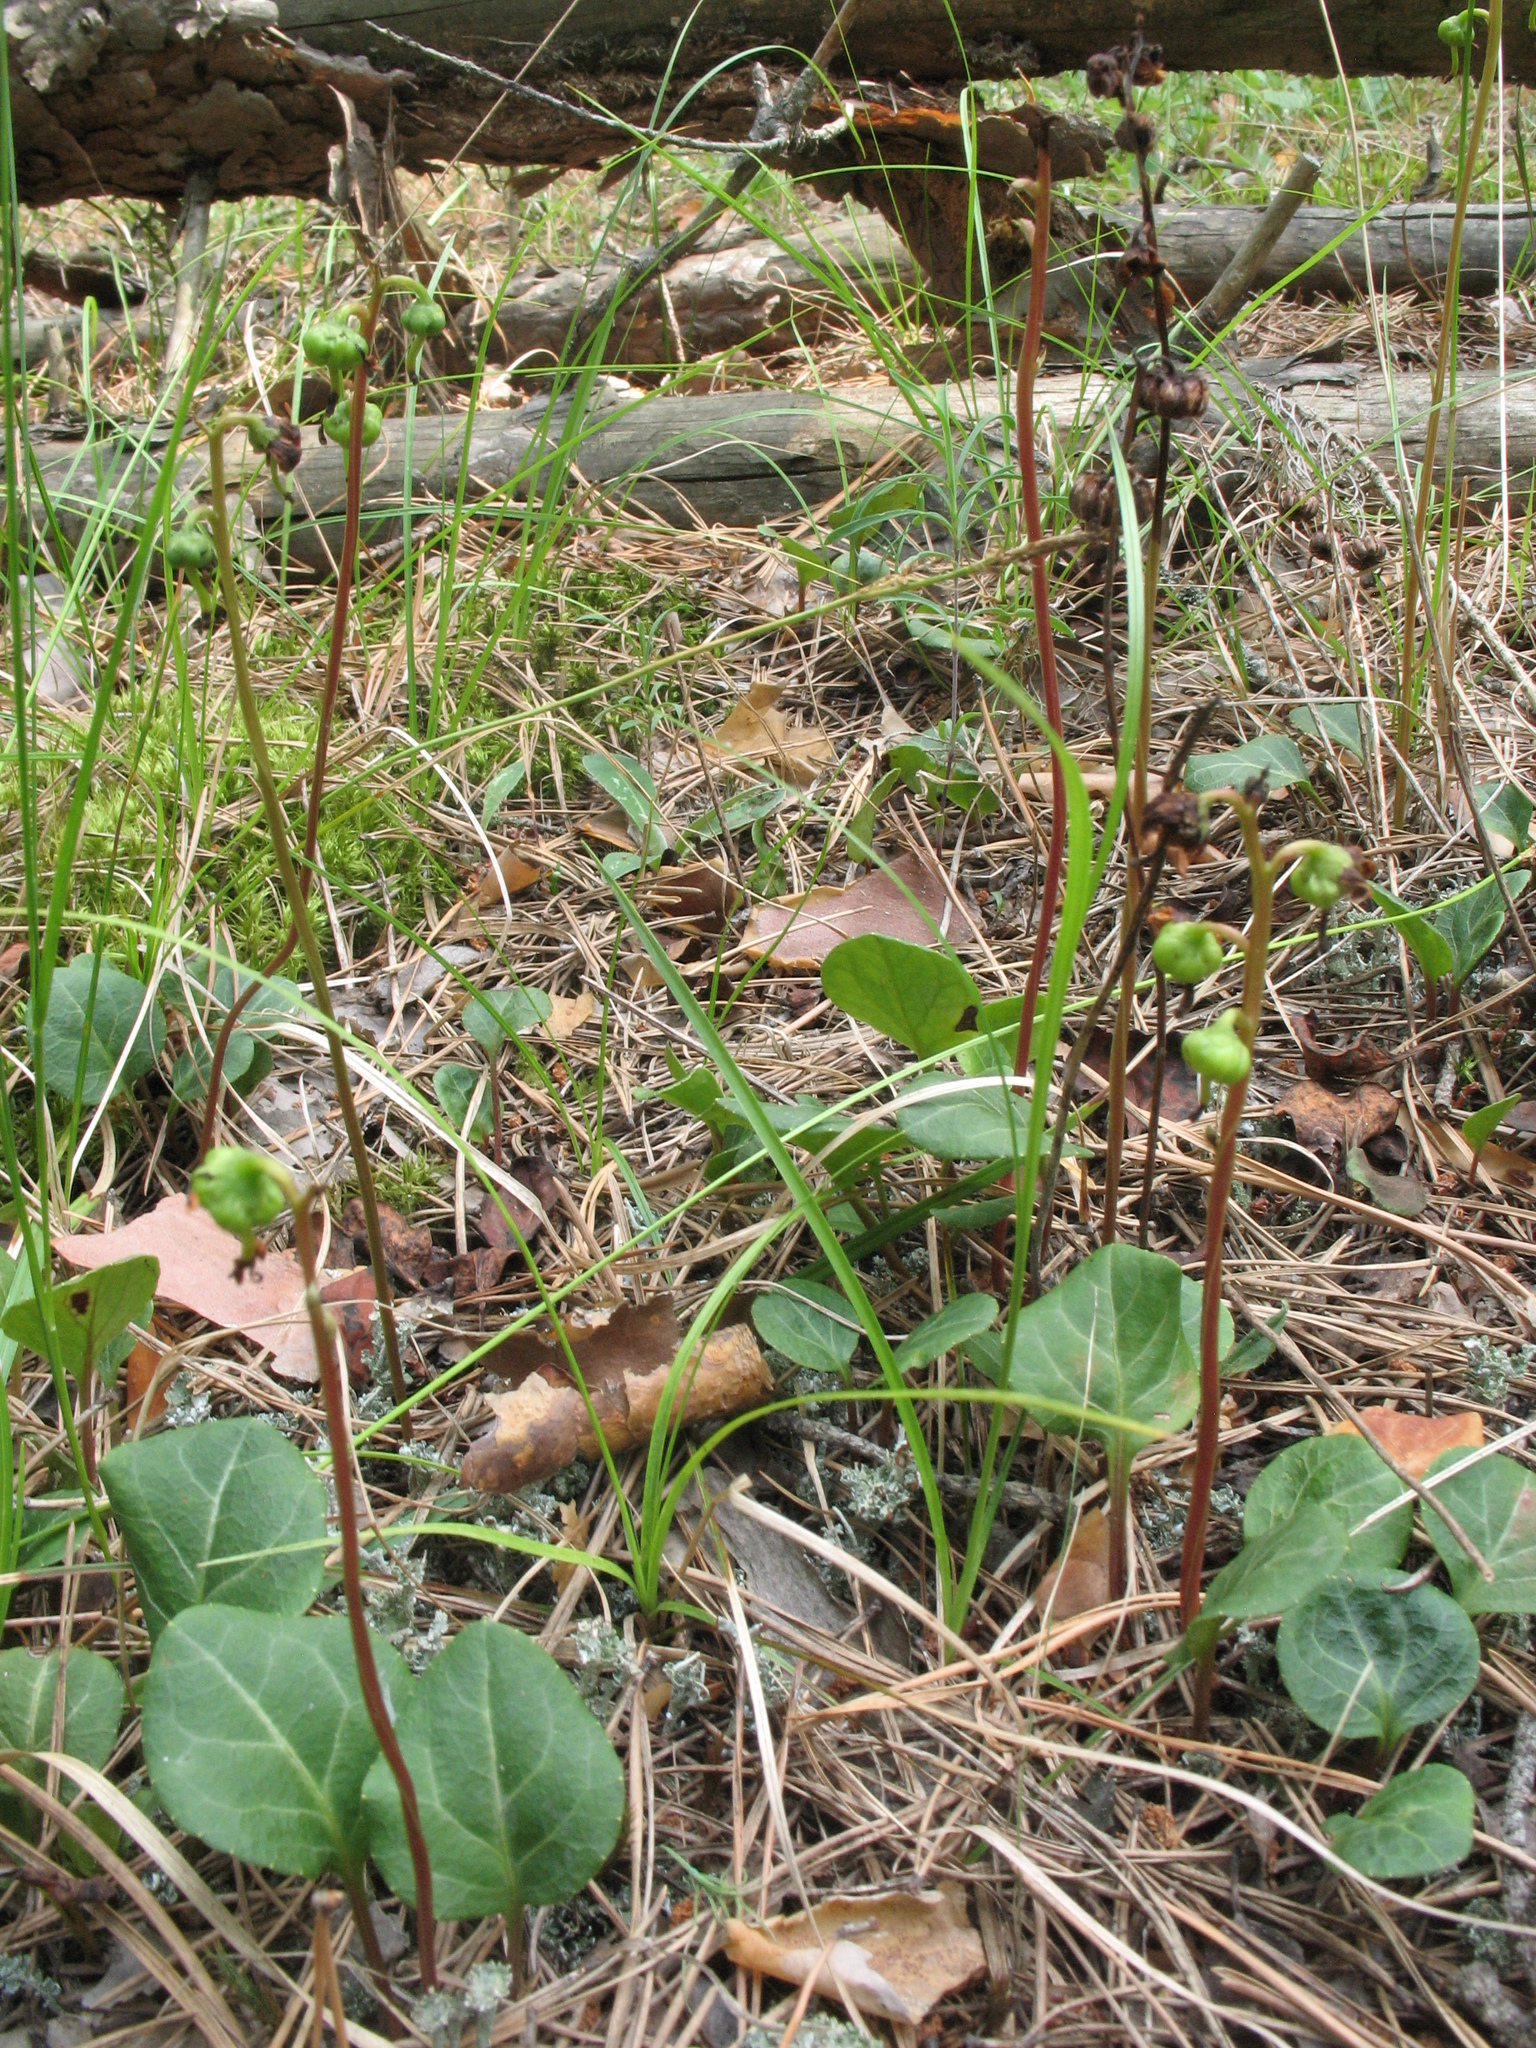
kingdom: Plantae
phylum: Tracheophyta
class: Magnoliopsida
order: Ericales
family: Ericaceae
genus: Pyrola
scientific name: Pyrola chlorantha
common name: Green wintergreen
